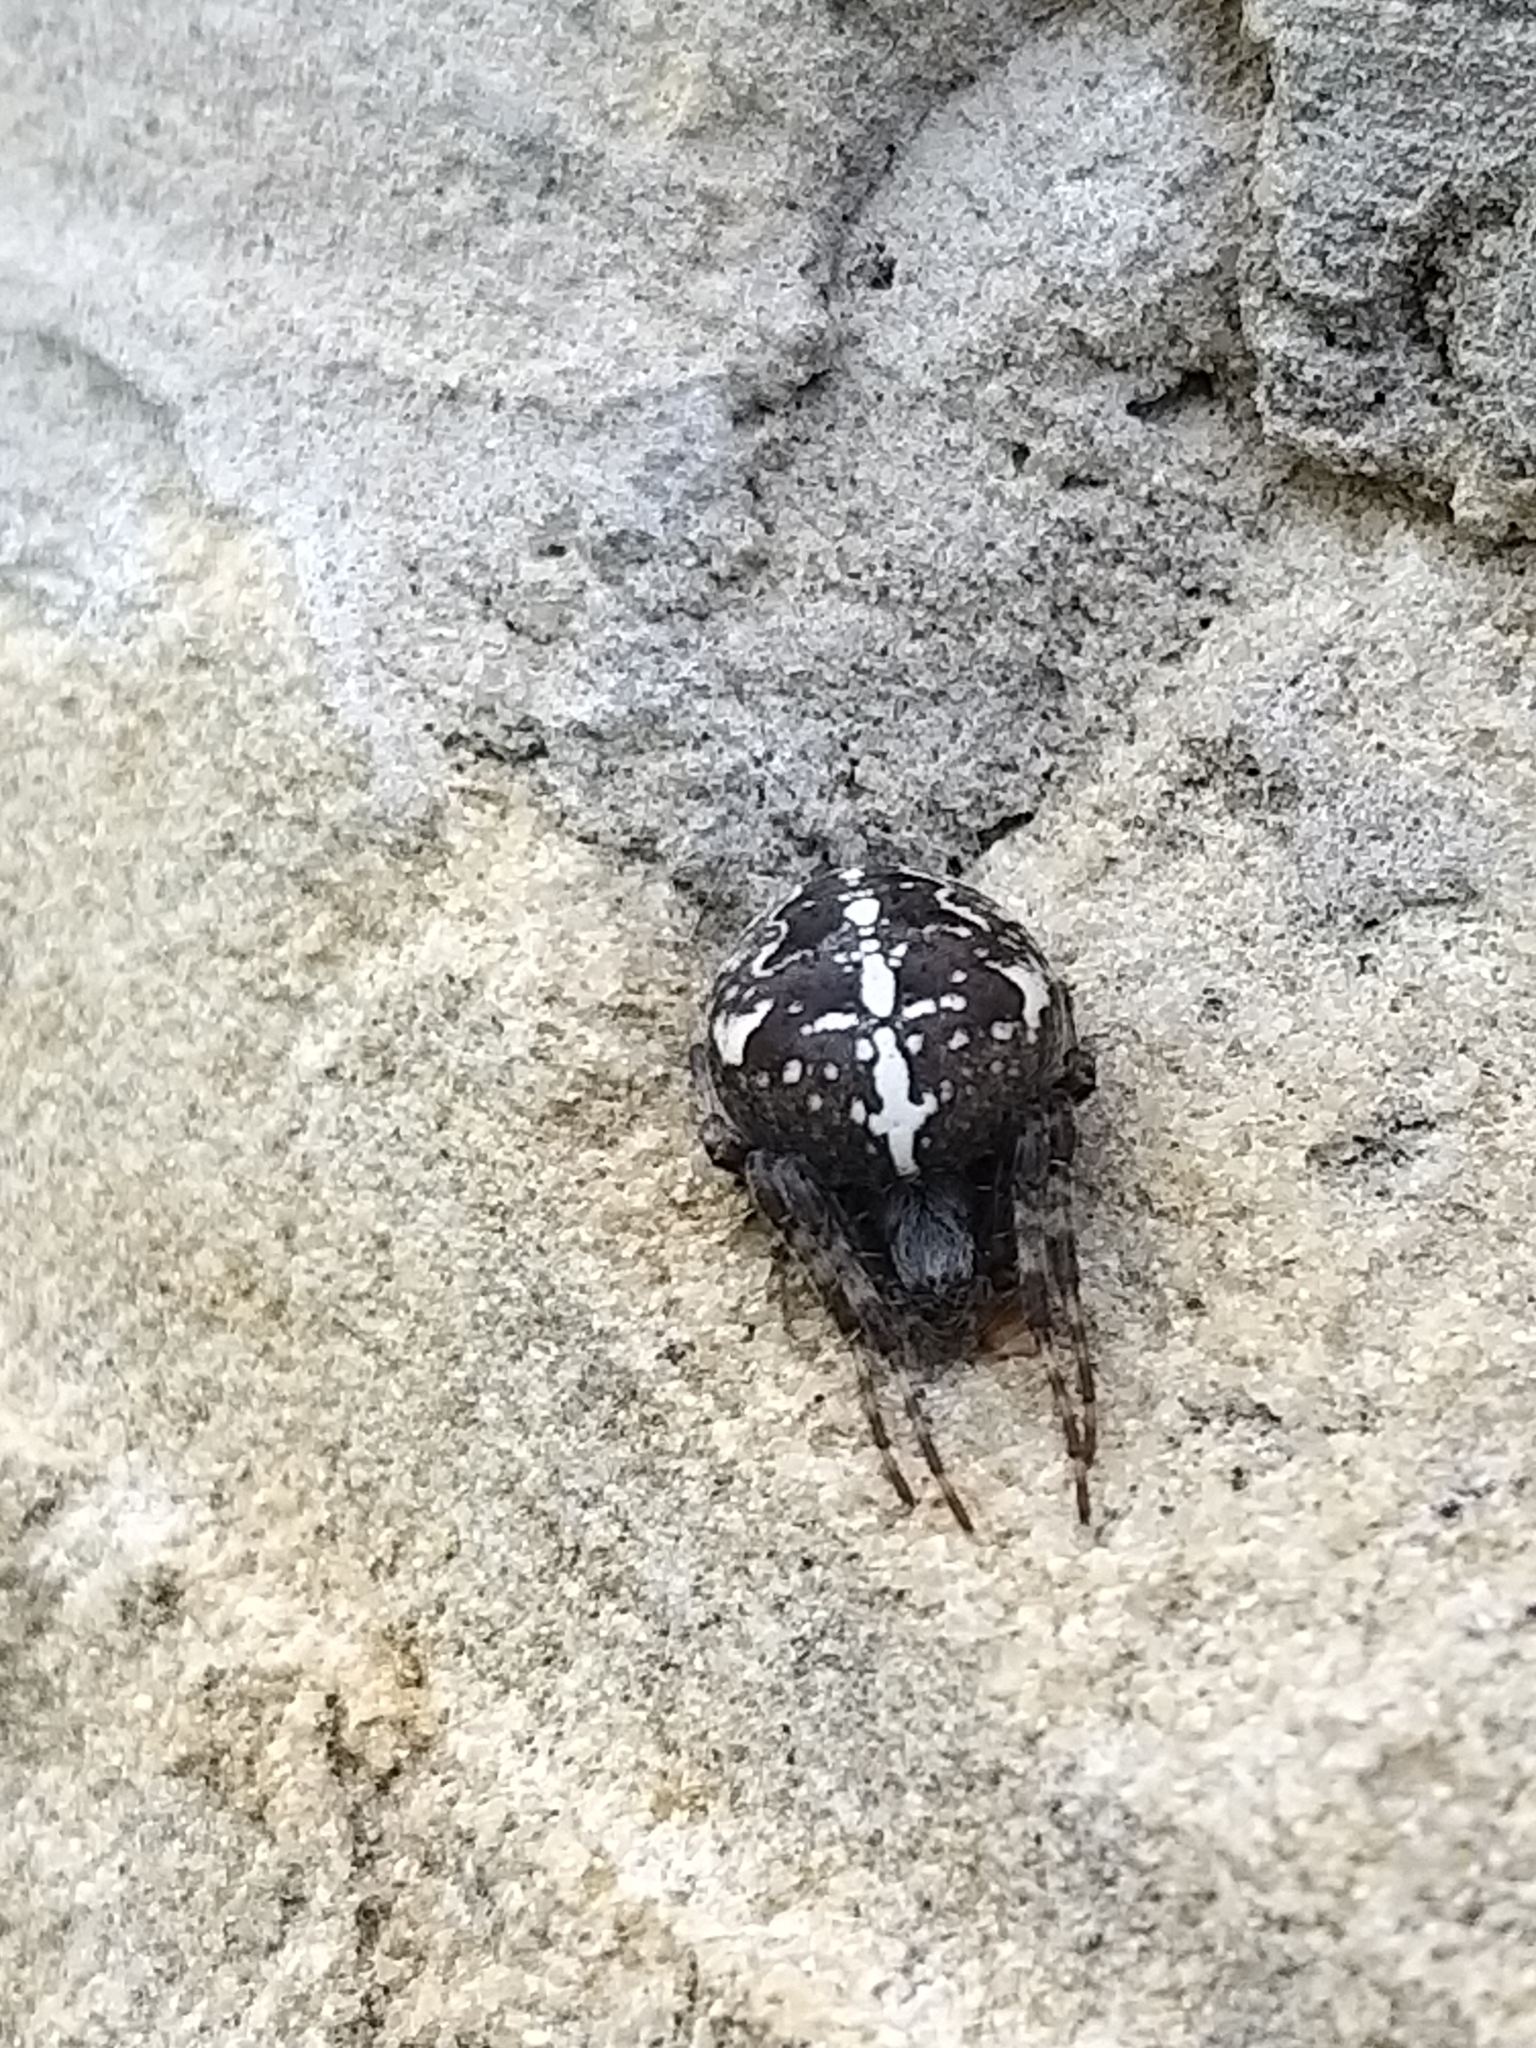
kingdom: Animalia
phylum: Arthropoda
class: Arachnida
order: Araneae
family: Araneidae
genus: Araneus
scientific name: Araneus diadematus
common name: Cross orbweaver
